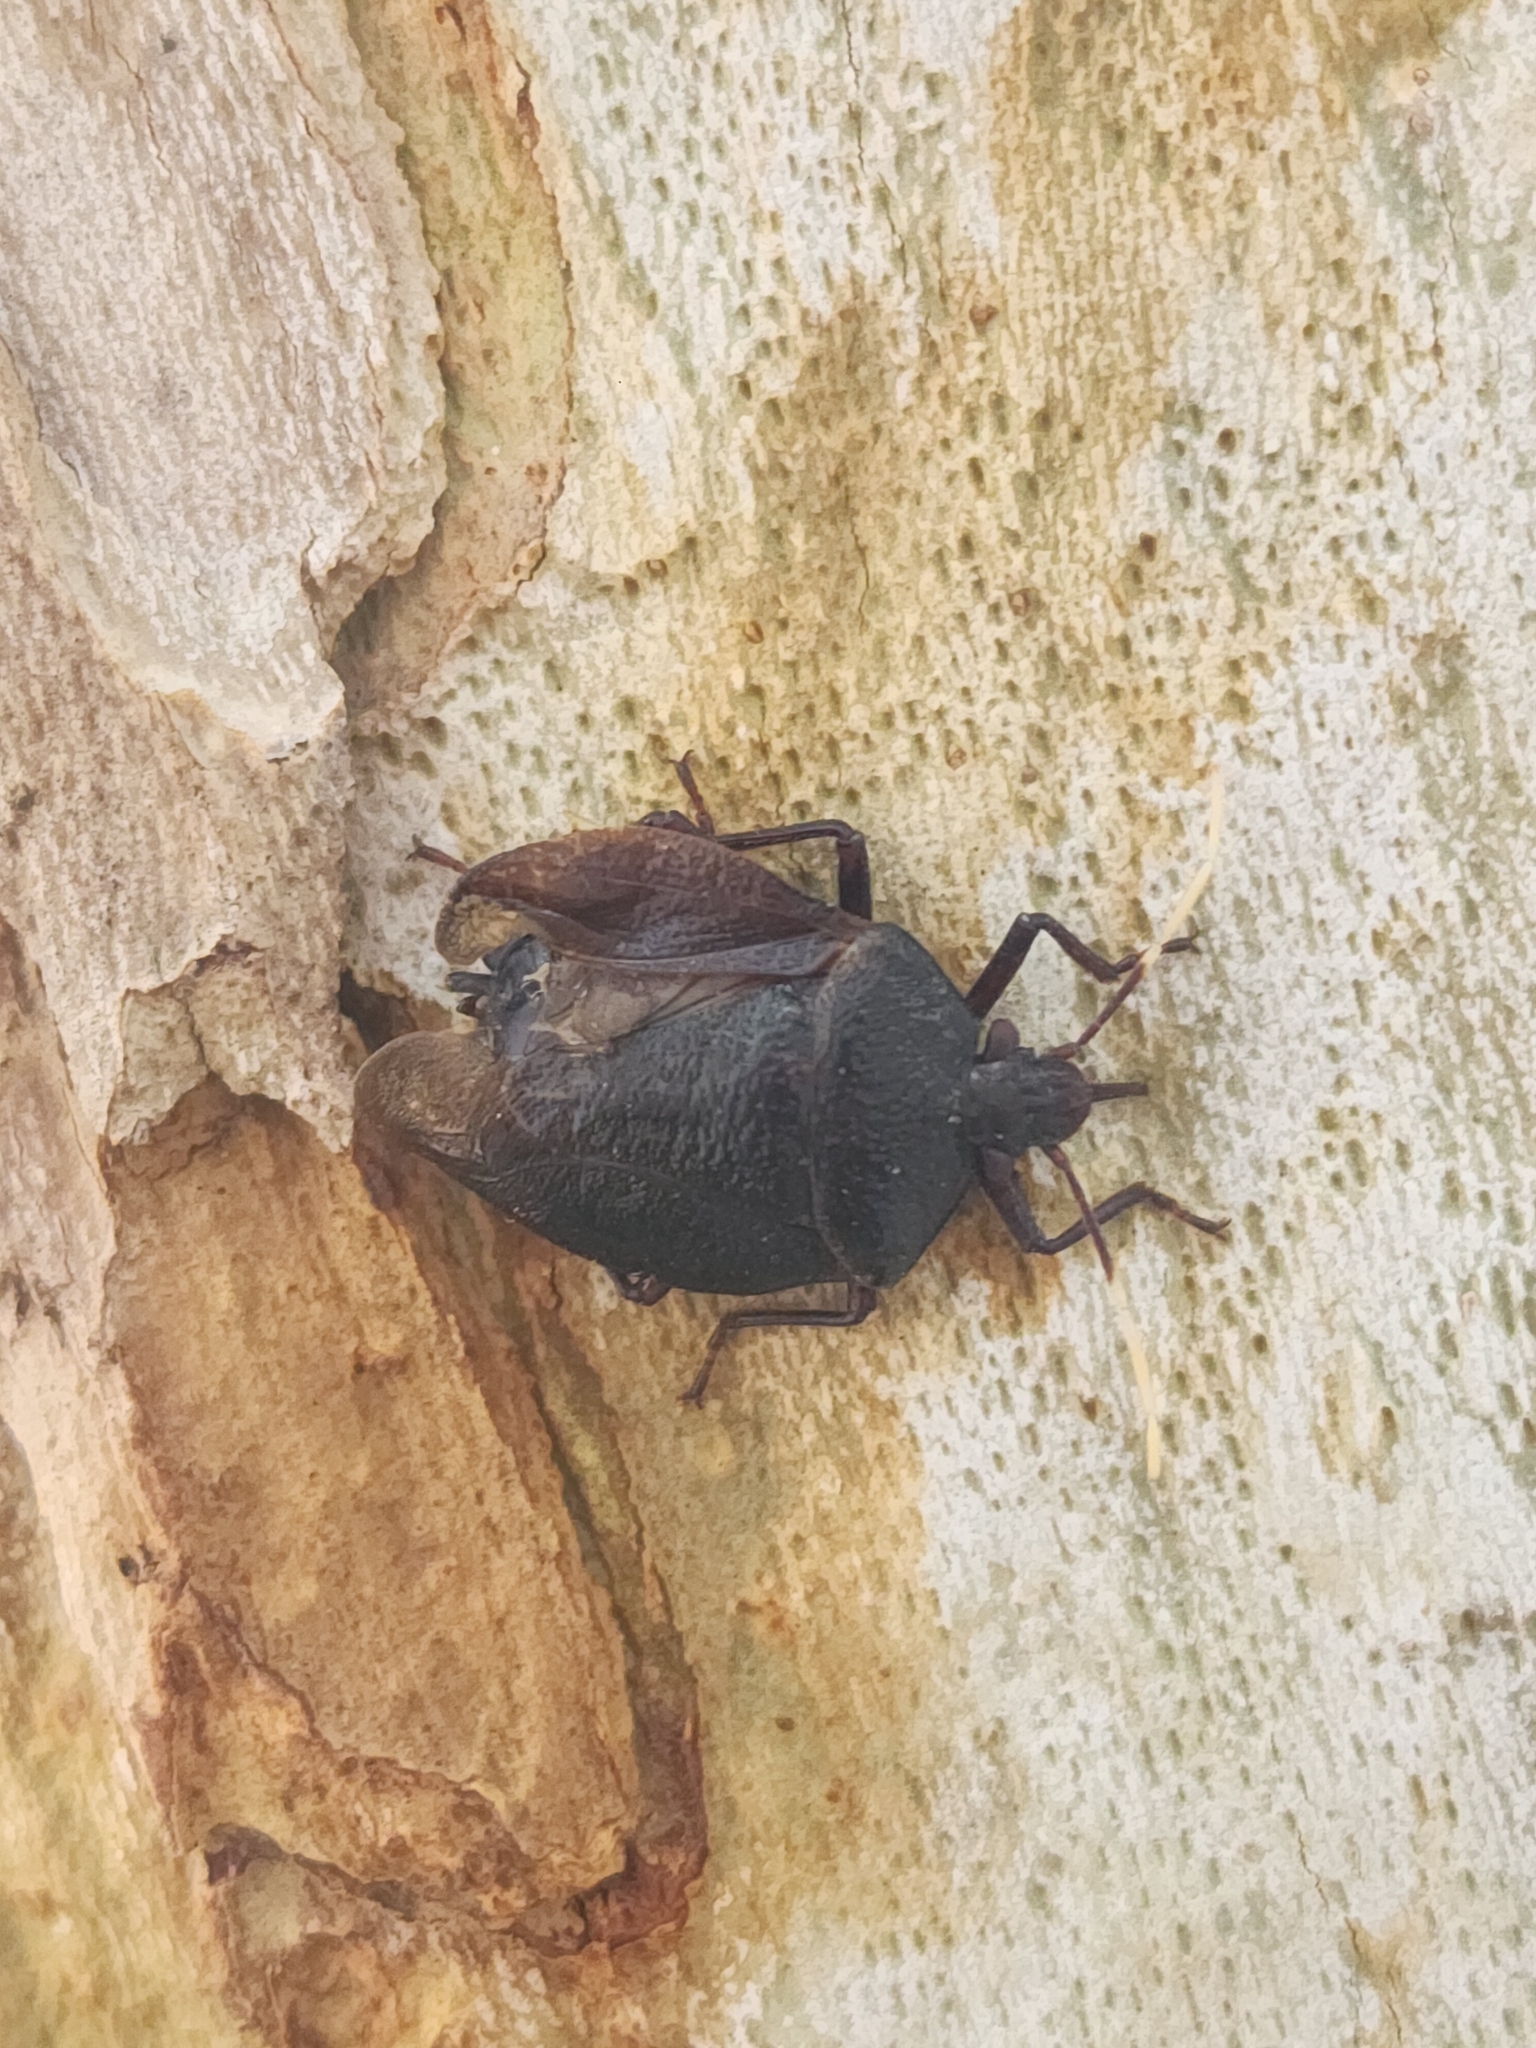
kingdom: Animalia
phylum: Arthropoda
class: Insecta
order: Hemiptera
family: Pentatomidae
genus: Antiteuchus
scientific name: Antiteuchus mixtus
